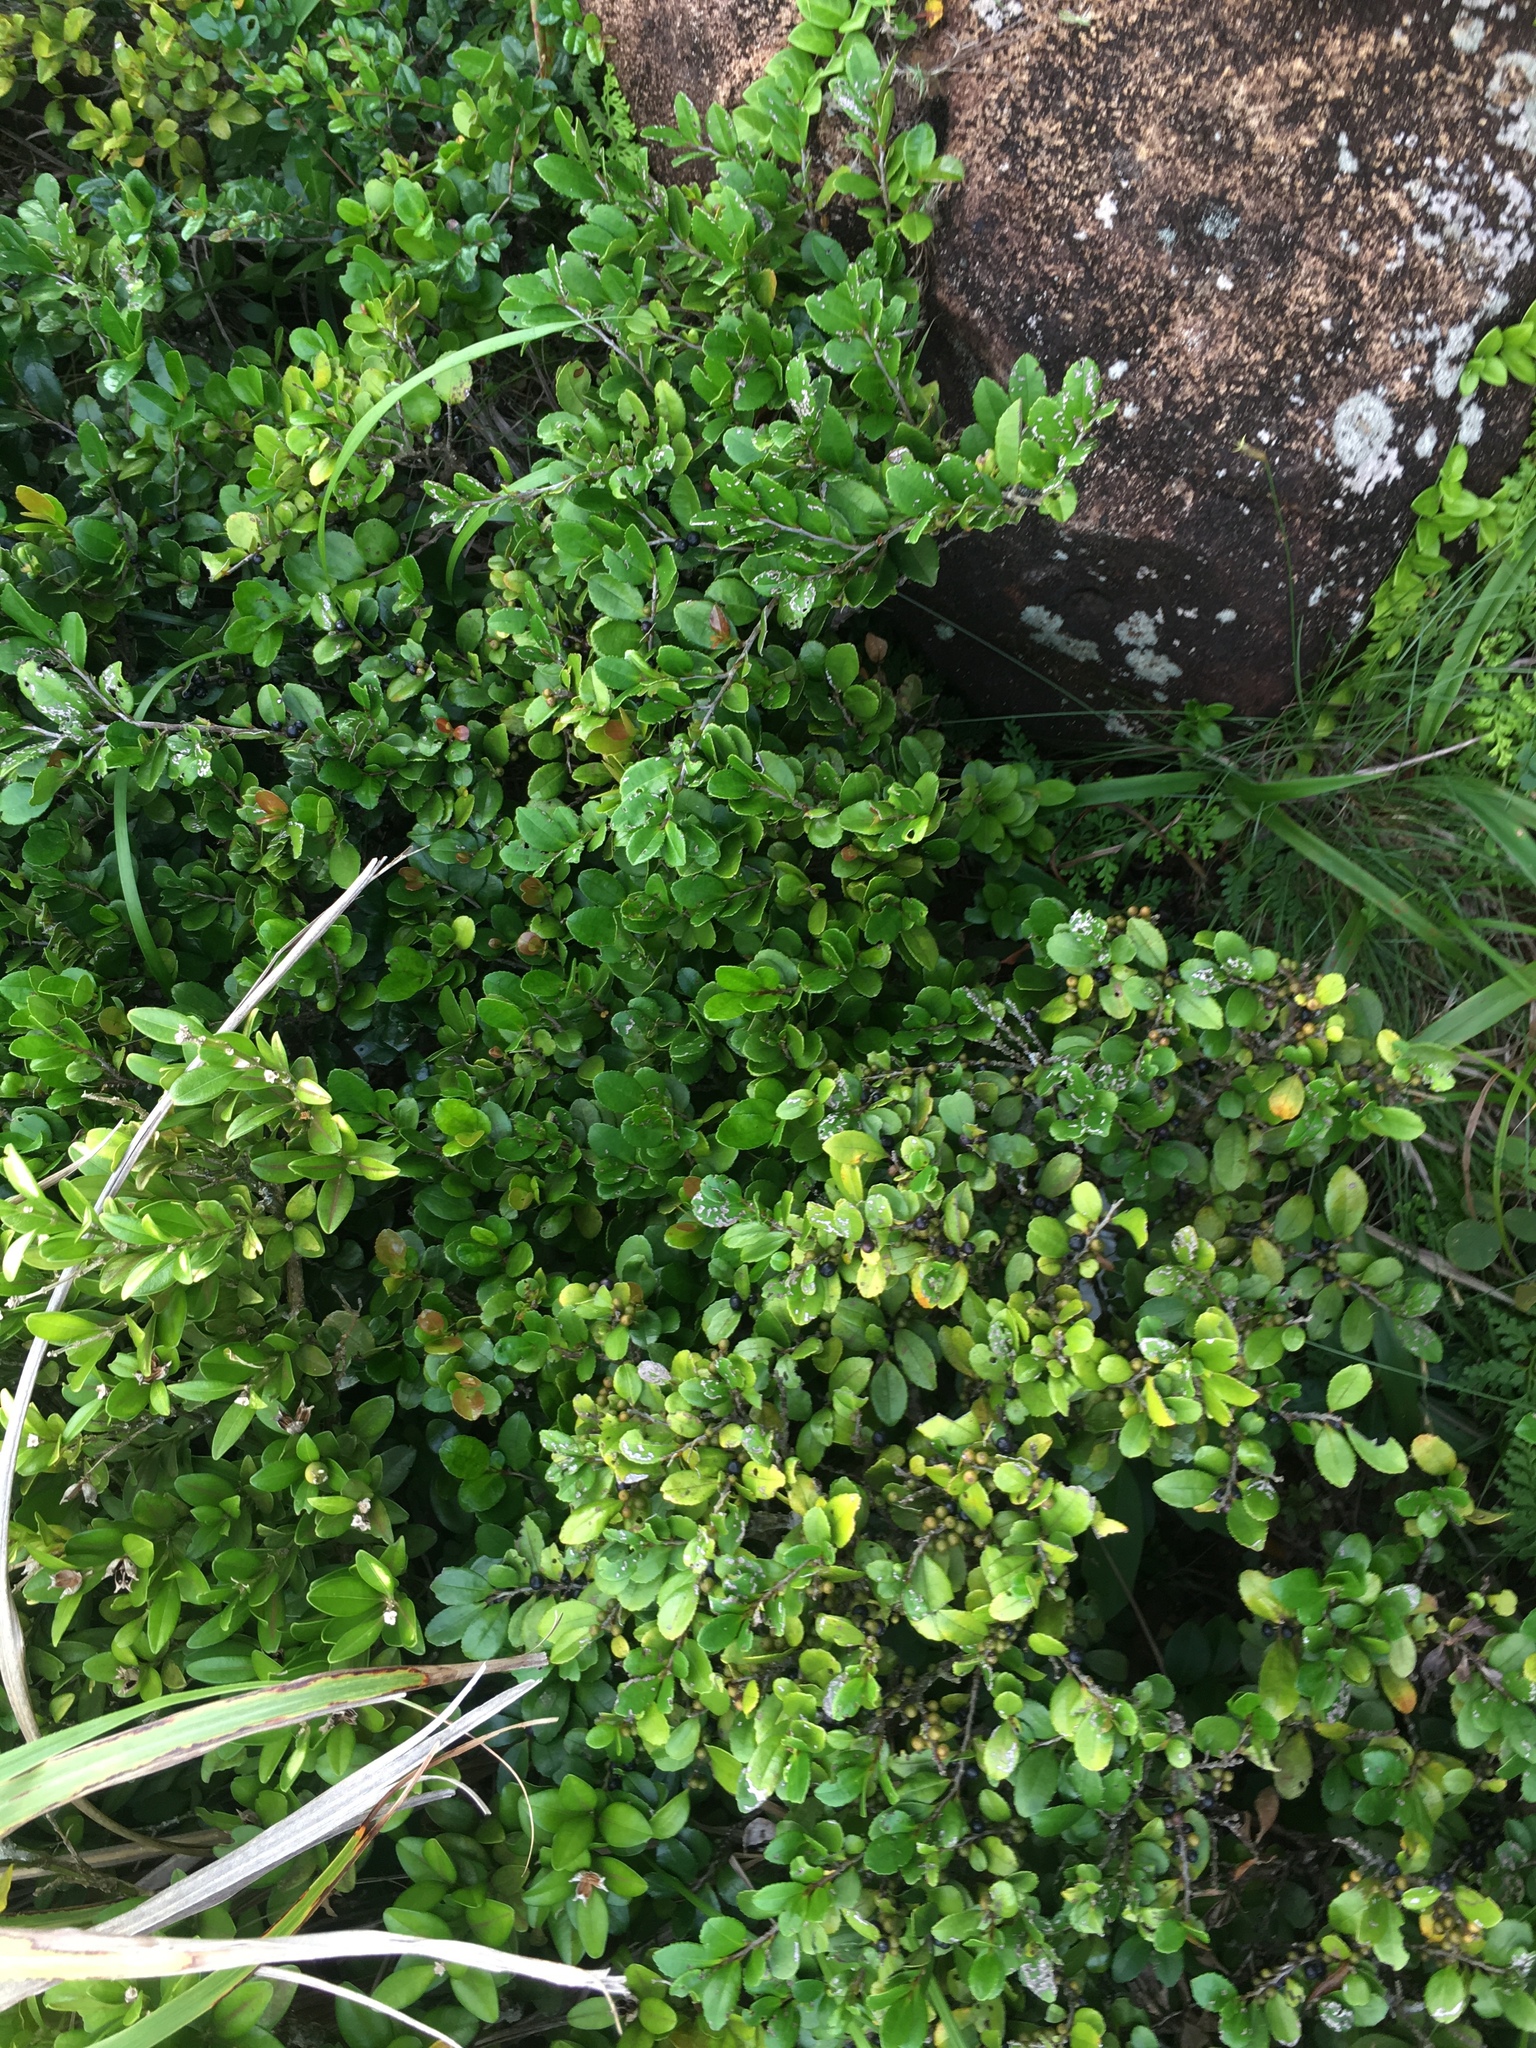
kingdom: Plantae
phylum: Tracheophyta
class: Magnoliopsida
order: Ericales
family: Pentaphylacaceae
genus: Eurya
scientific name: Eurya emarginata
